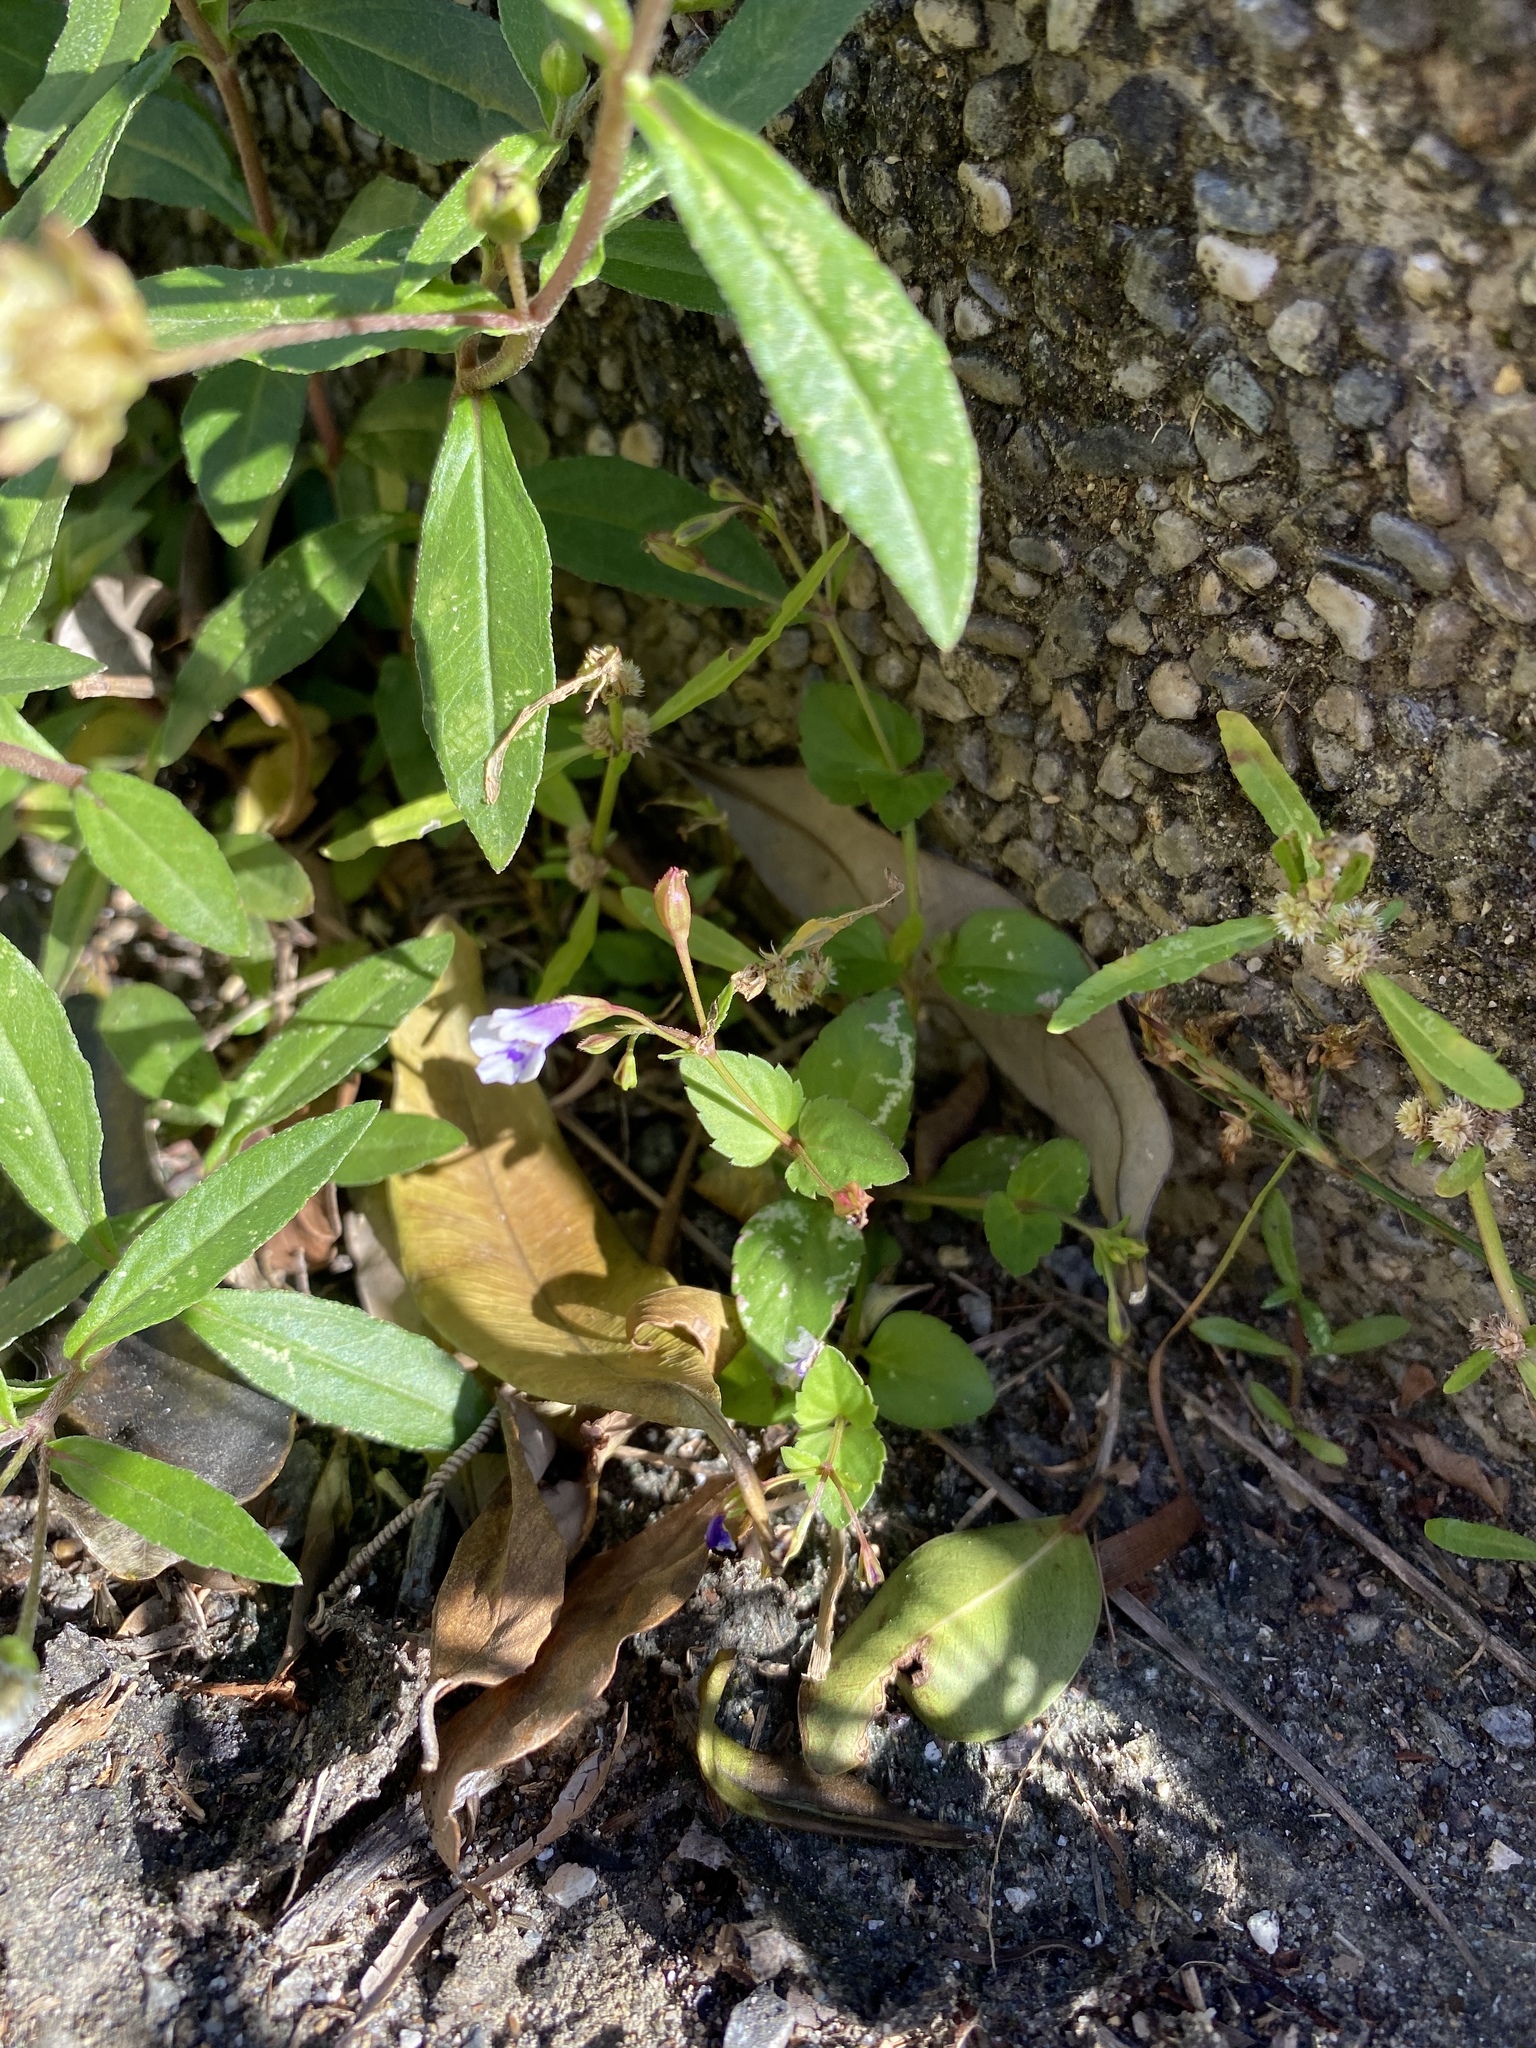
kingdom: Plantae
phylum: Tracheophyta
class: Magnoliopsida
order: Lamiales
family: Linderniaceae
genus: Torenia
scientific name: Torenia crustacea
